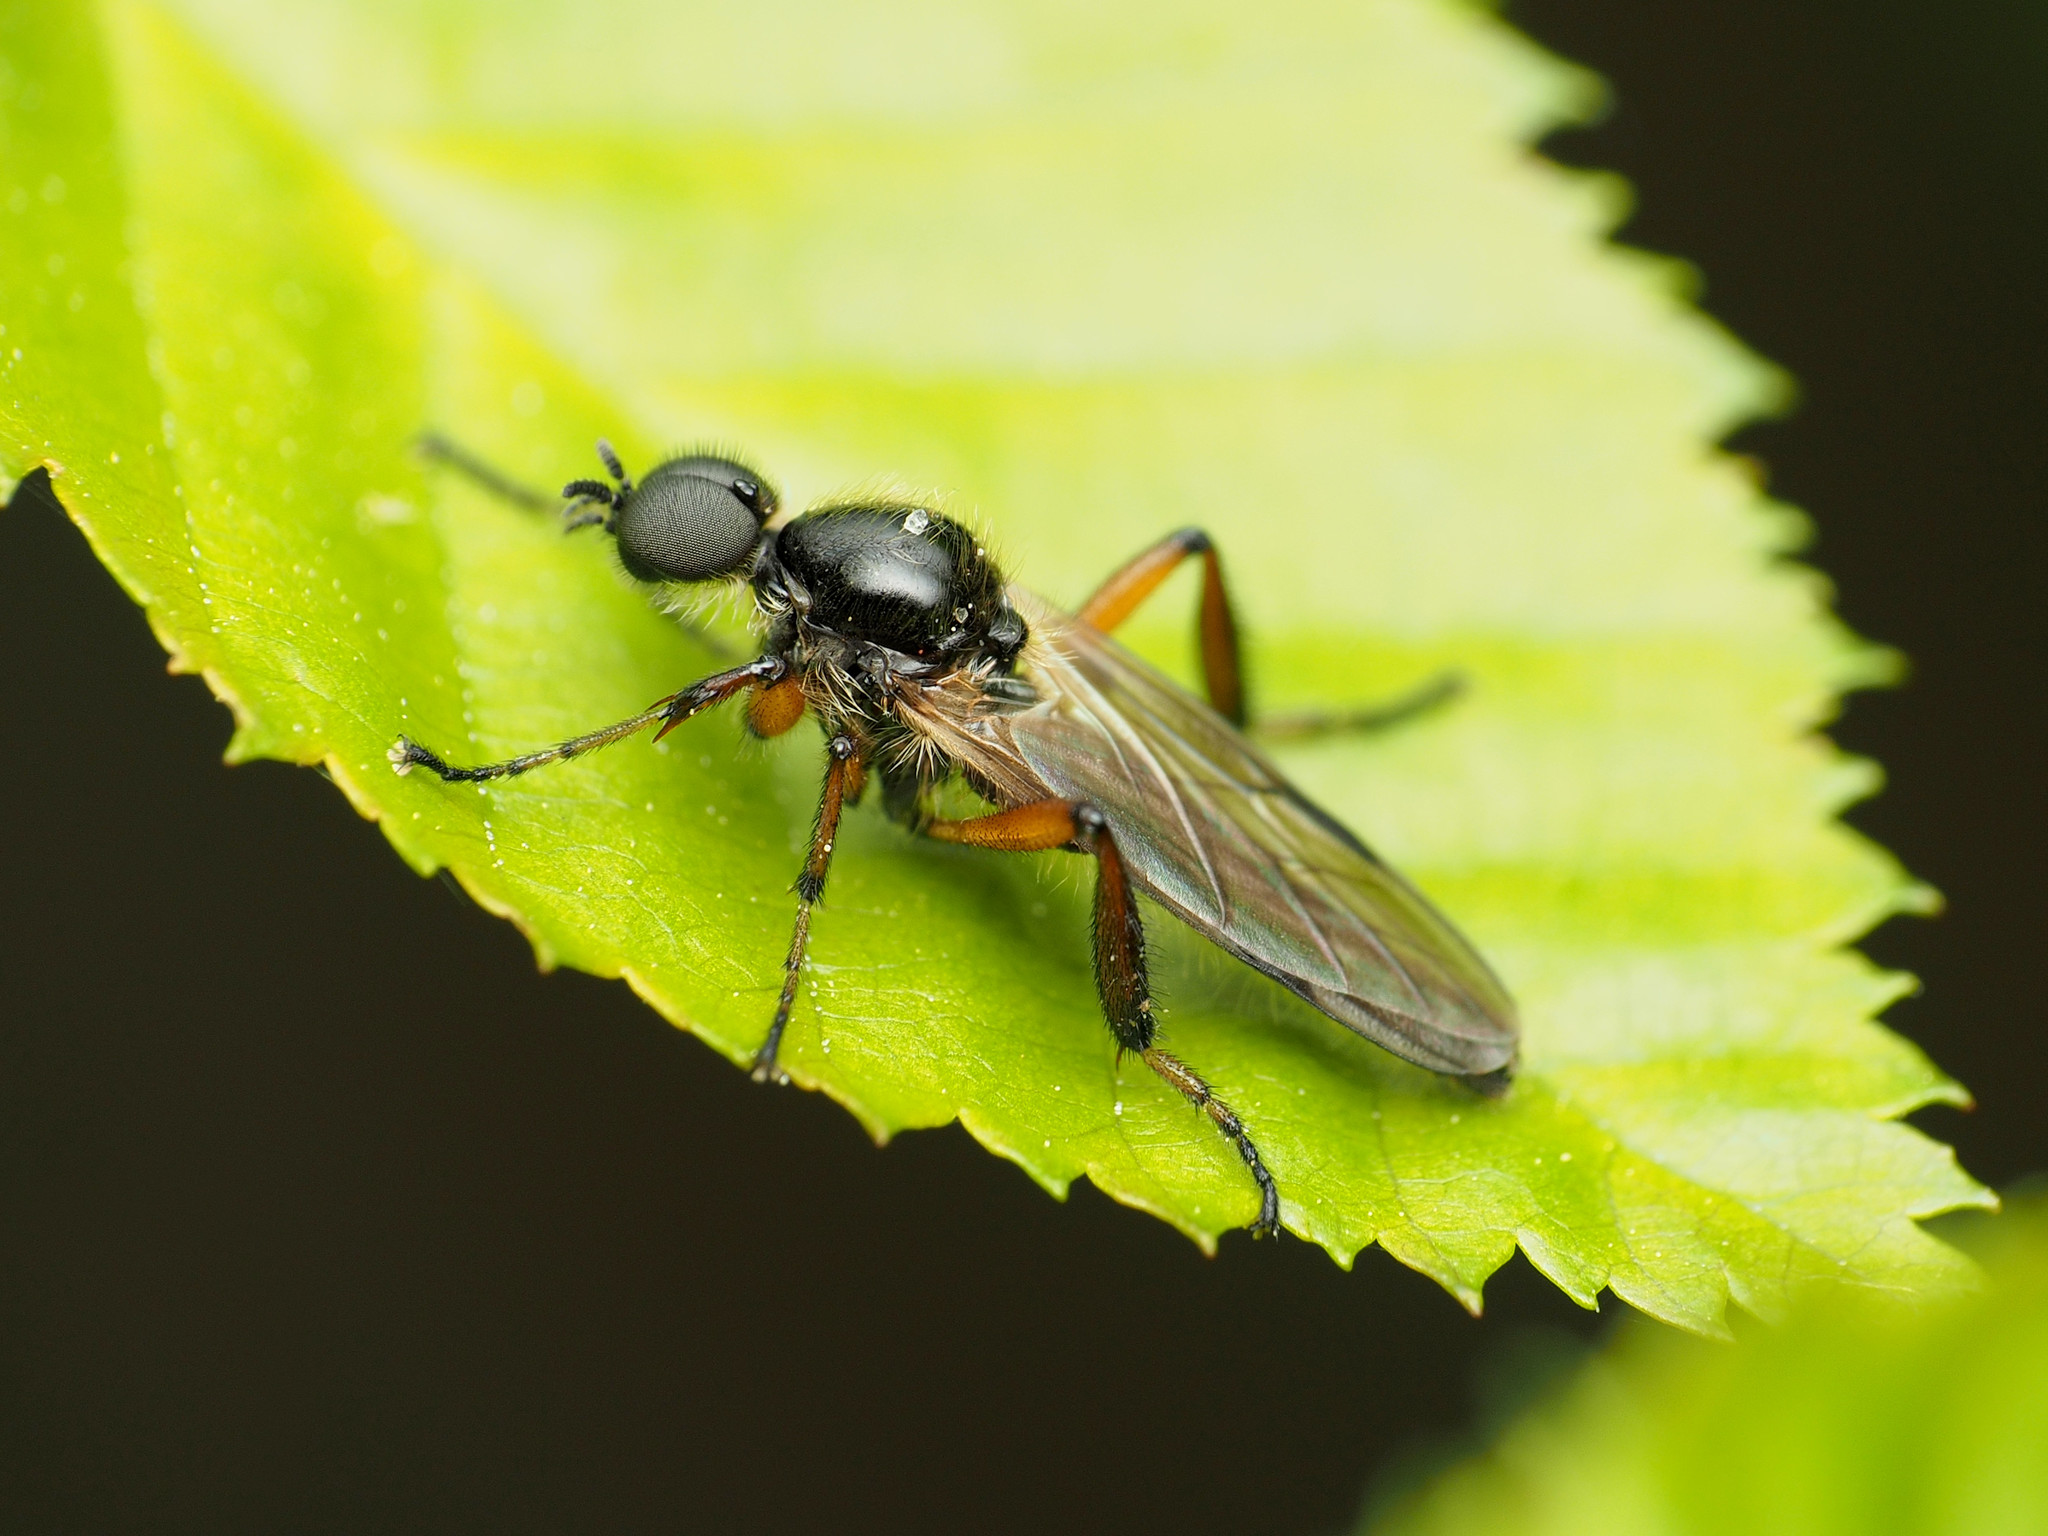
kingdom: Animalia
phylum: Arthropoda
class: Insecta
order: Diptera
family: Bibionidae
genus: Bibio
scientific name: Bibio articulatus
